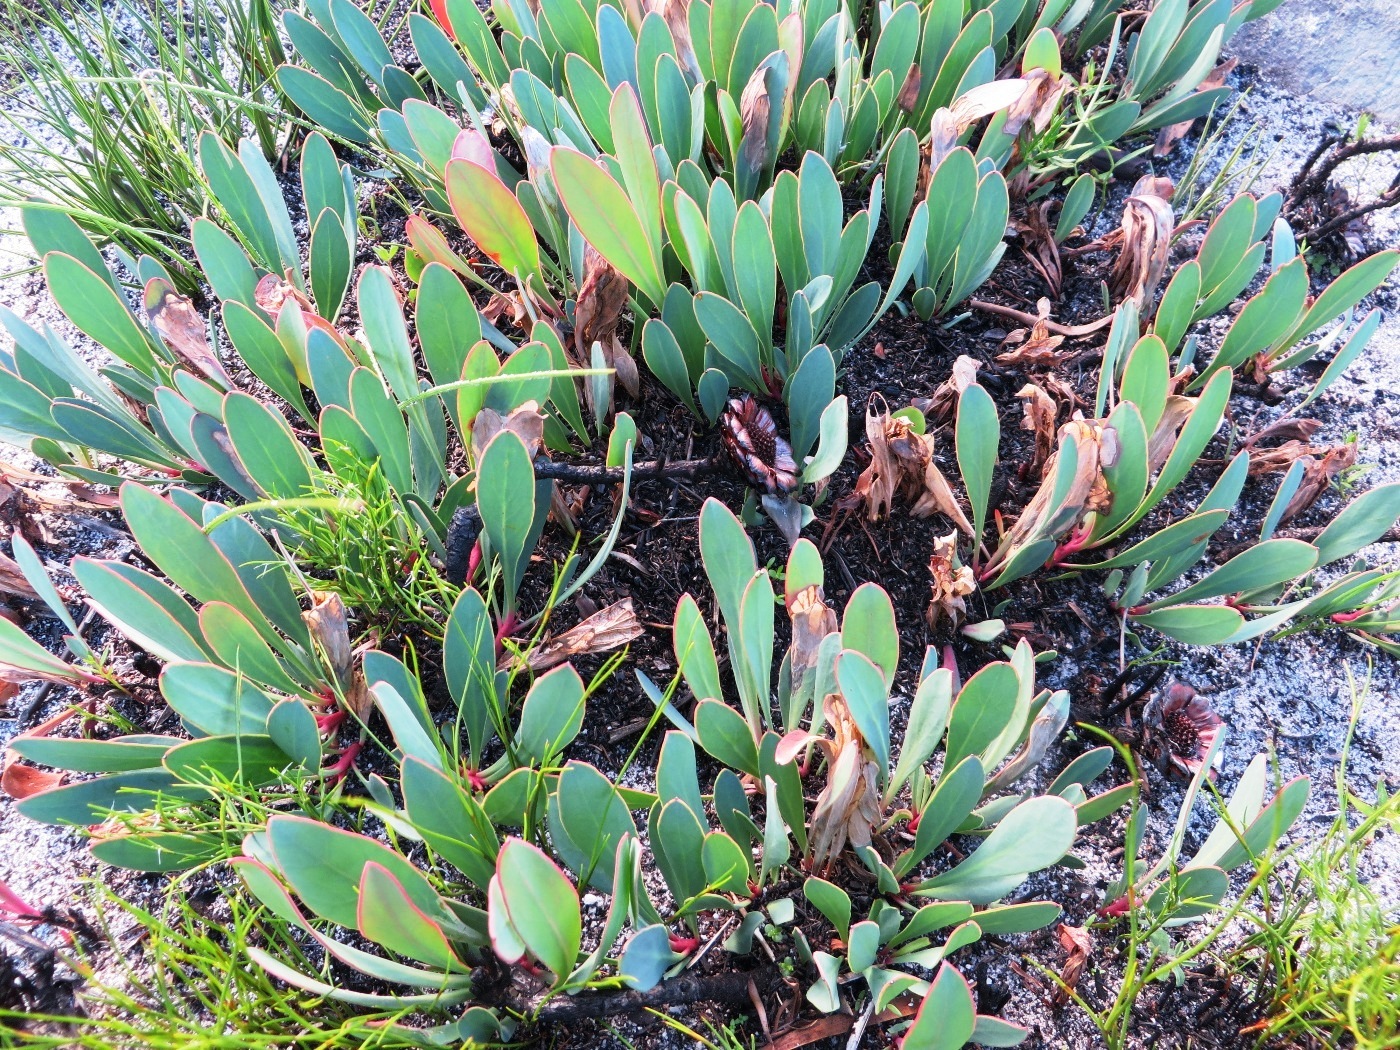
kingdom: Plantae
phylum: Tracheophyta
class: Magnoliopsida
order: Proteales
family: Proteaceae
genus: Protea
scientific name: Protea acaulos
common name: Common ground sugarbush
